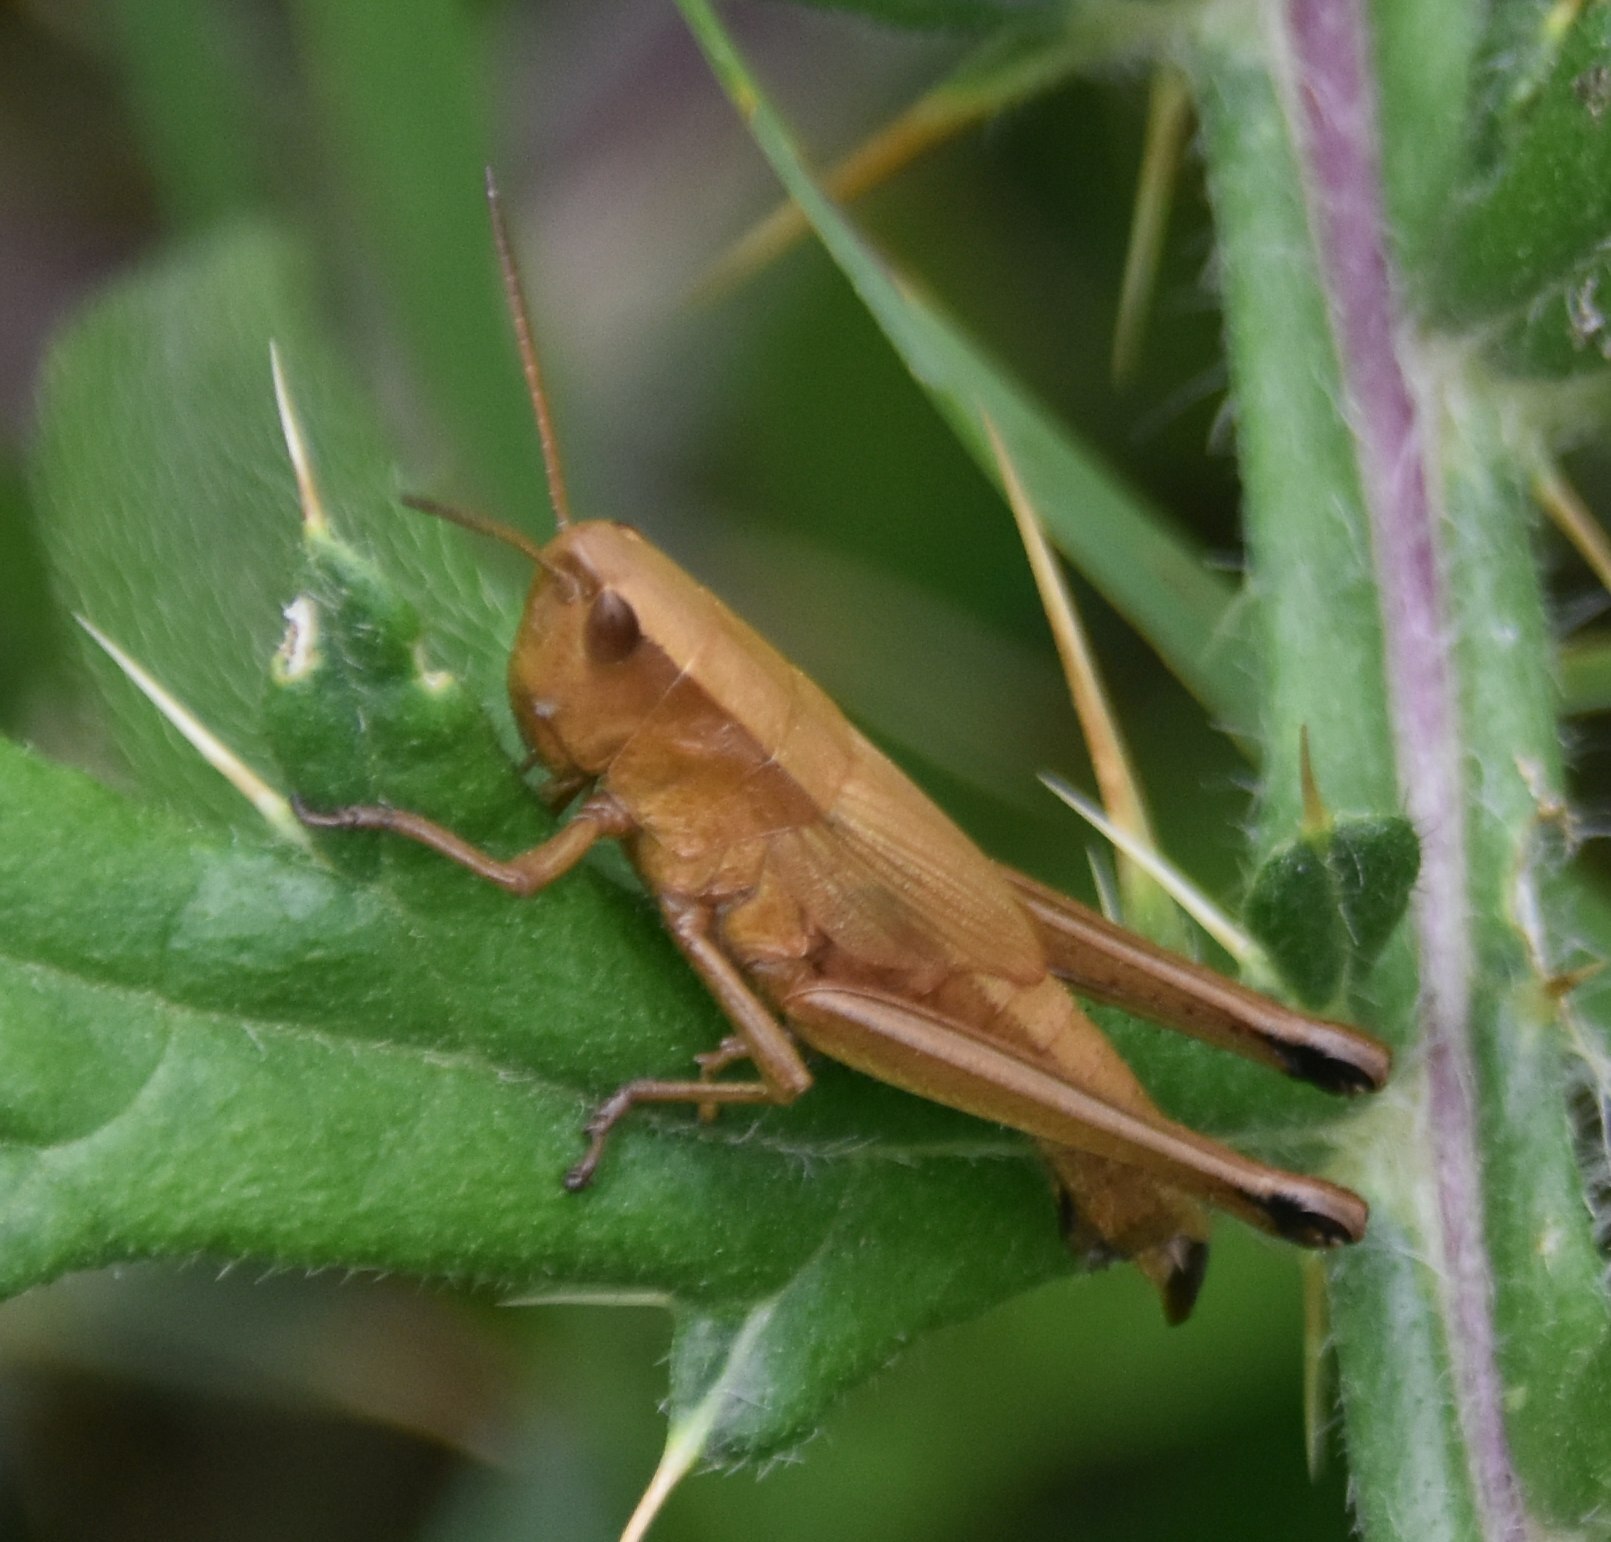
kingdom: Animalia
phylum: Arthropoda
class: Insecta
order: Orthoptera
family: Acrididae
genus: Chrysochraon
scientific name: Chrysochraon dispar
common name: Large gold grasshopper
